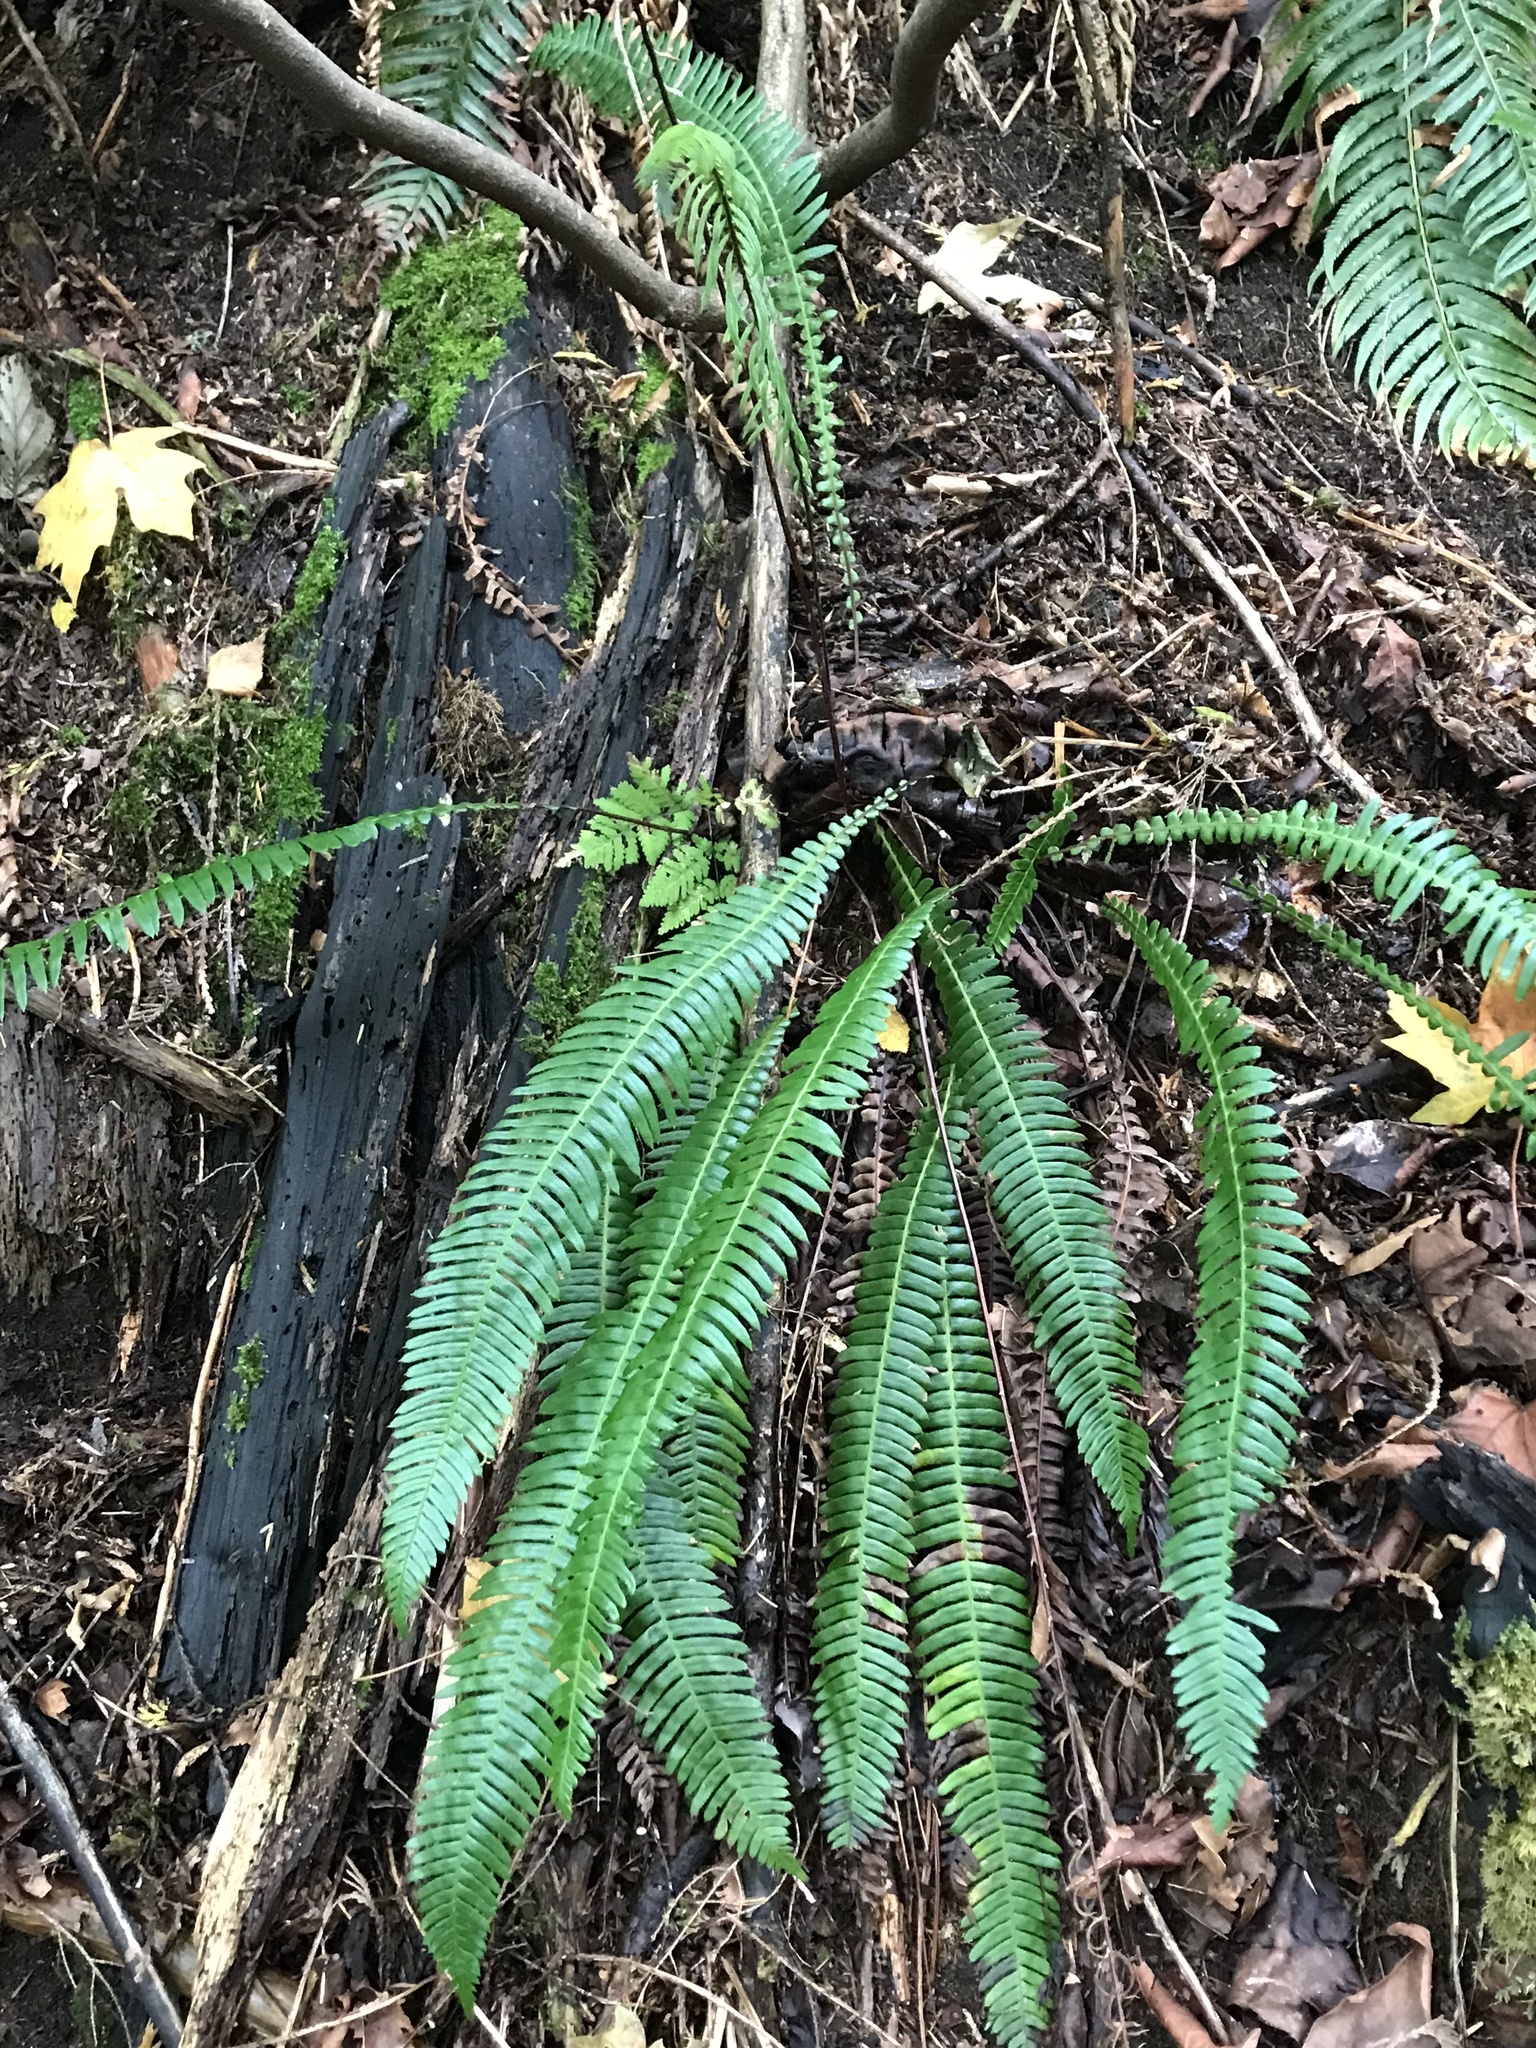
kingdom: Plantae
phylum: Tracheophyta
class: Polypodiopsida
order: Polypodiales
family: Blechnaceae
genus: Struthiopteris
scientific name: Struthiopteris spicant
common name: Deer fern
